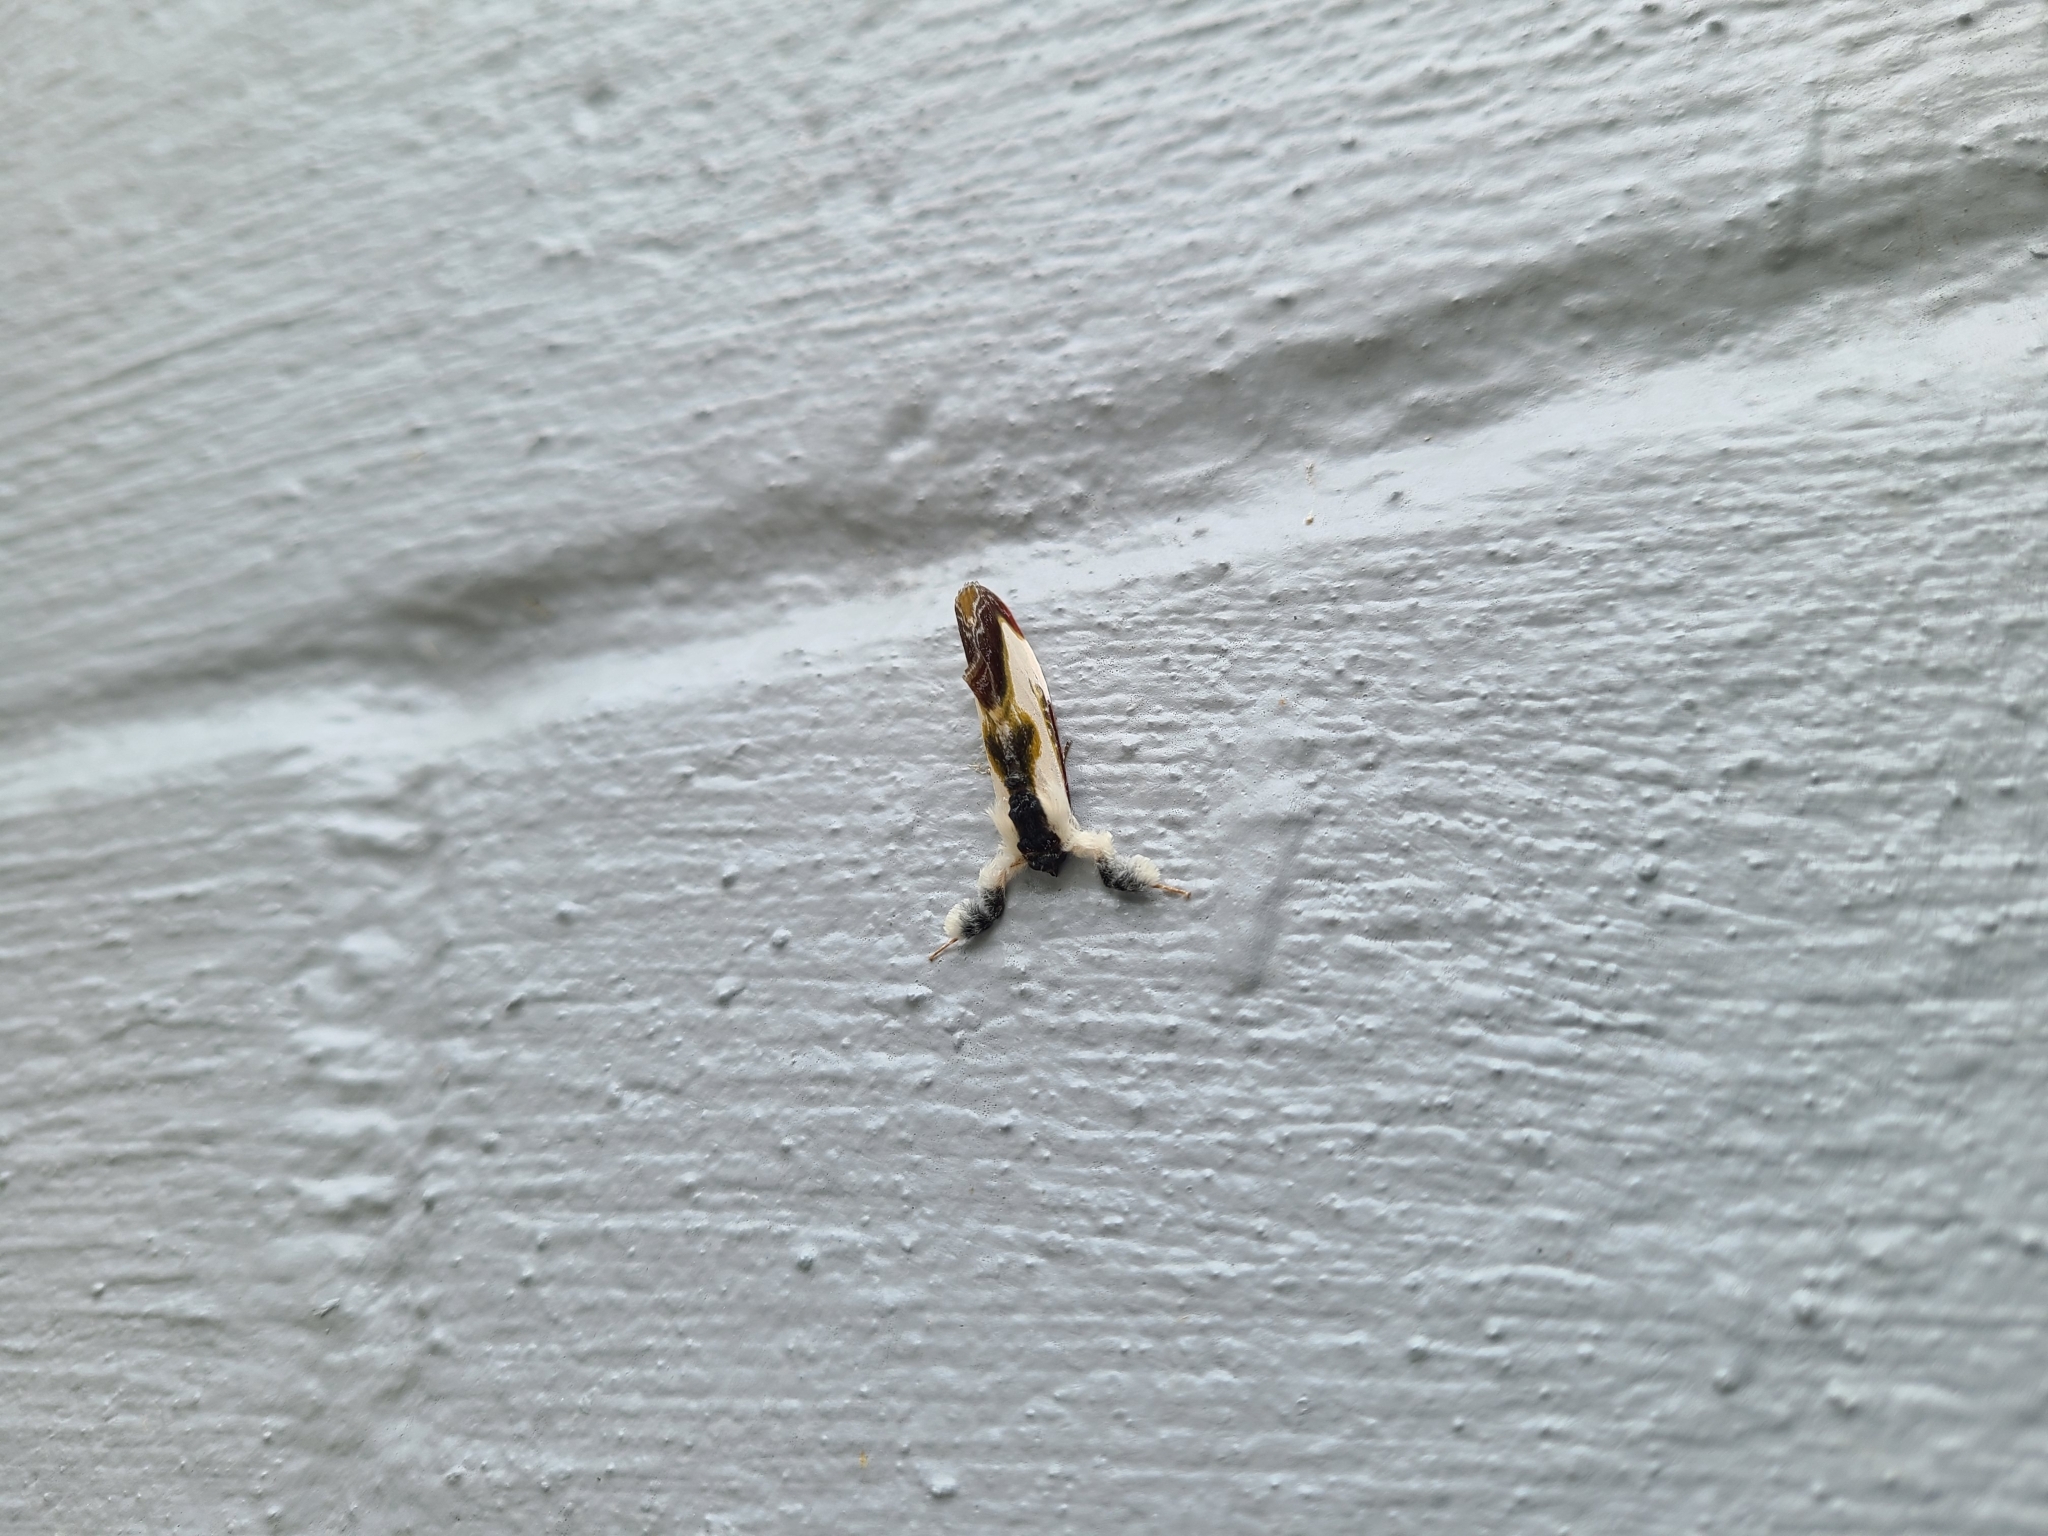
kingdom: Animalia
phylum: Arthropoda
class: Insecta
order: Lepidoptera
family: Noctuidae
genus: Eudryas
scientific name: Eudryas grata
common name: Beautiful wood-nymph
